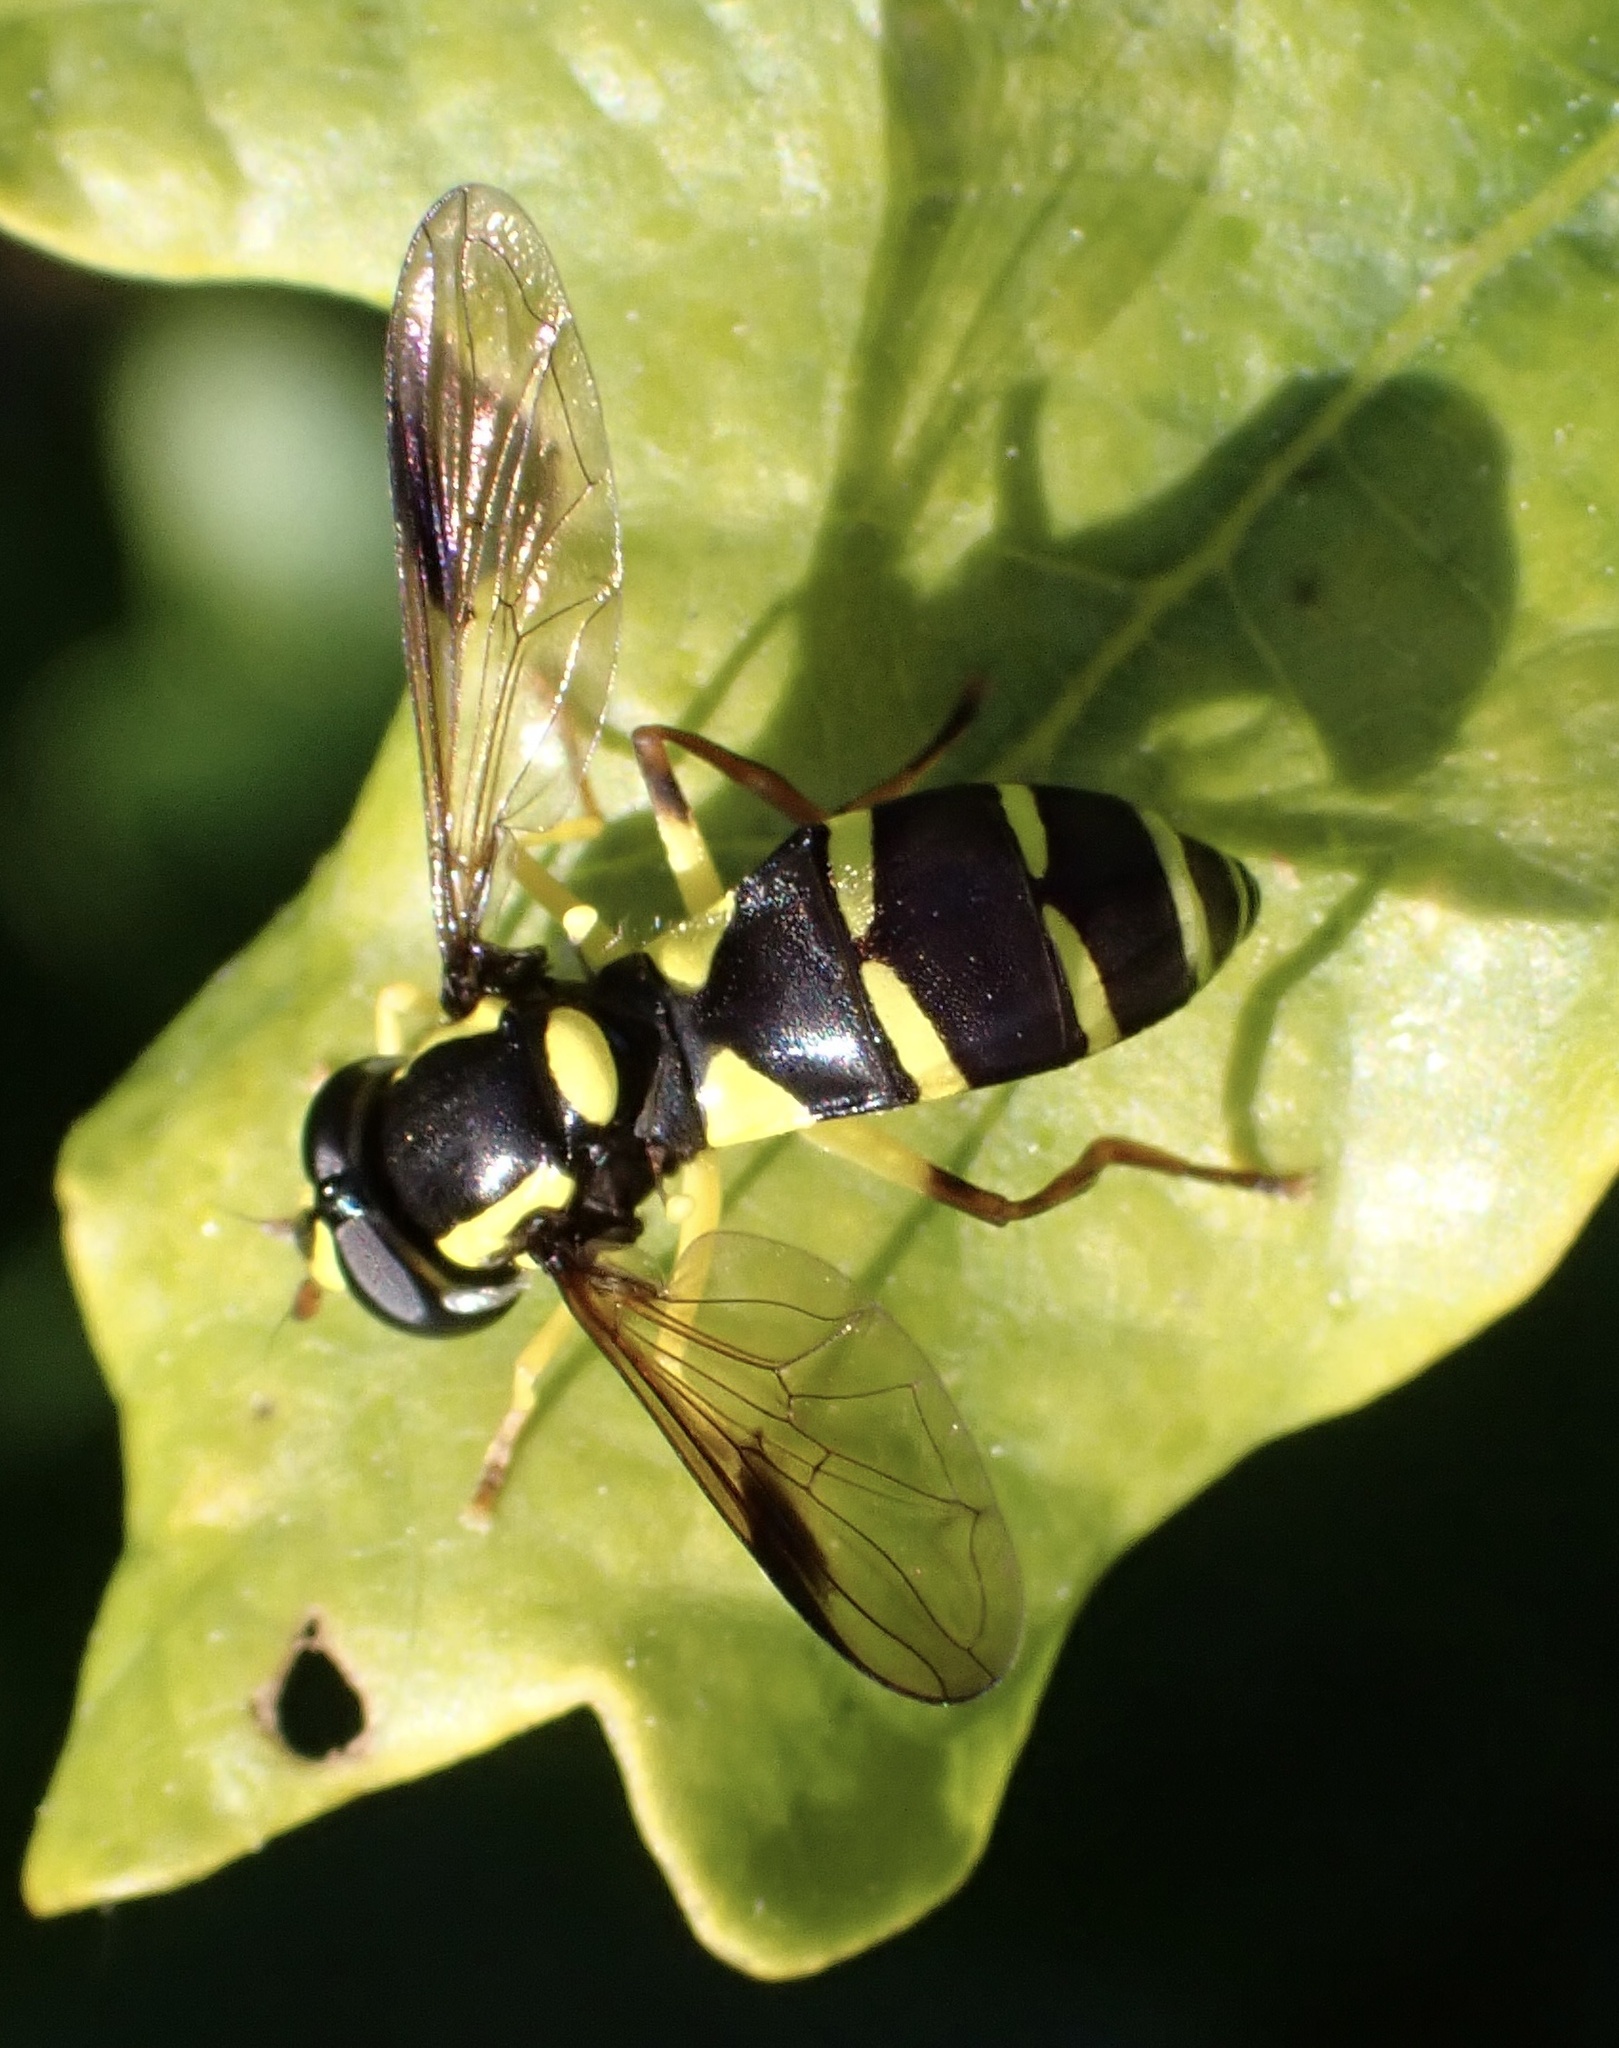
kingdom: Animalia
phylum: Arthropoda
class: Insecta
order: Diptera
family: Syrphidae
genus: Philhelius
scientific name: Philhelius pedissequum
